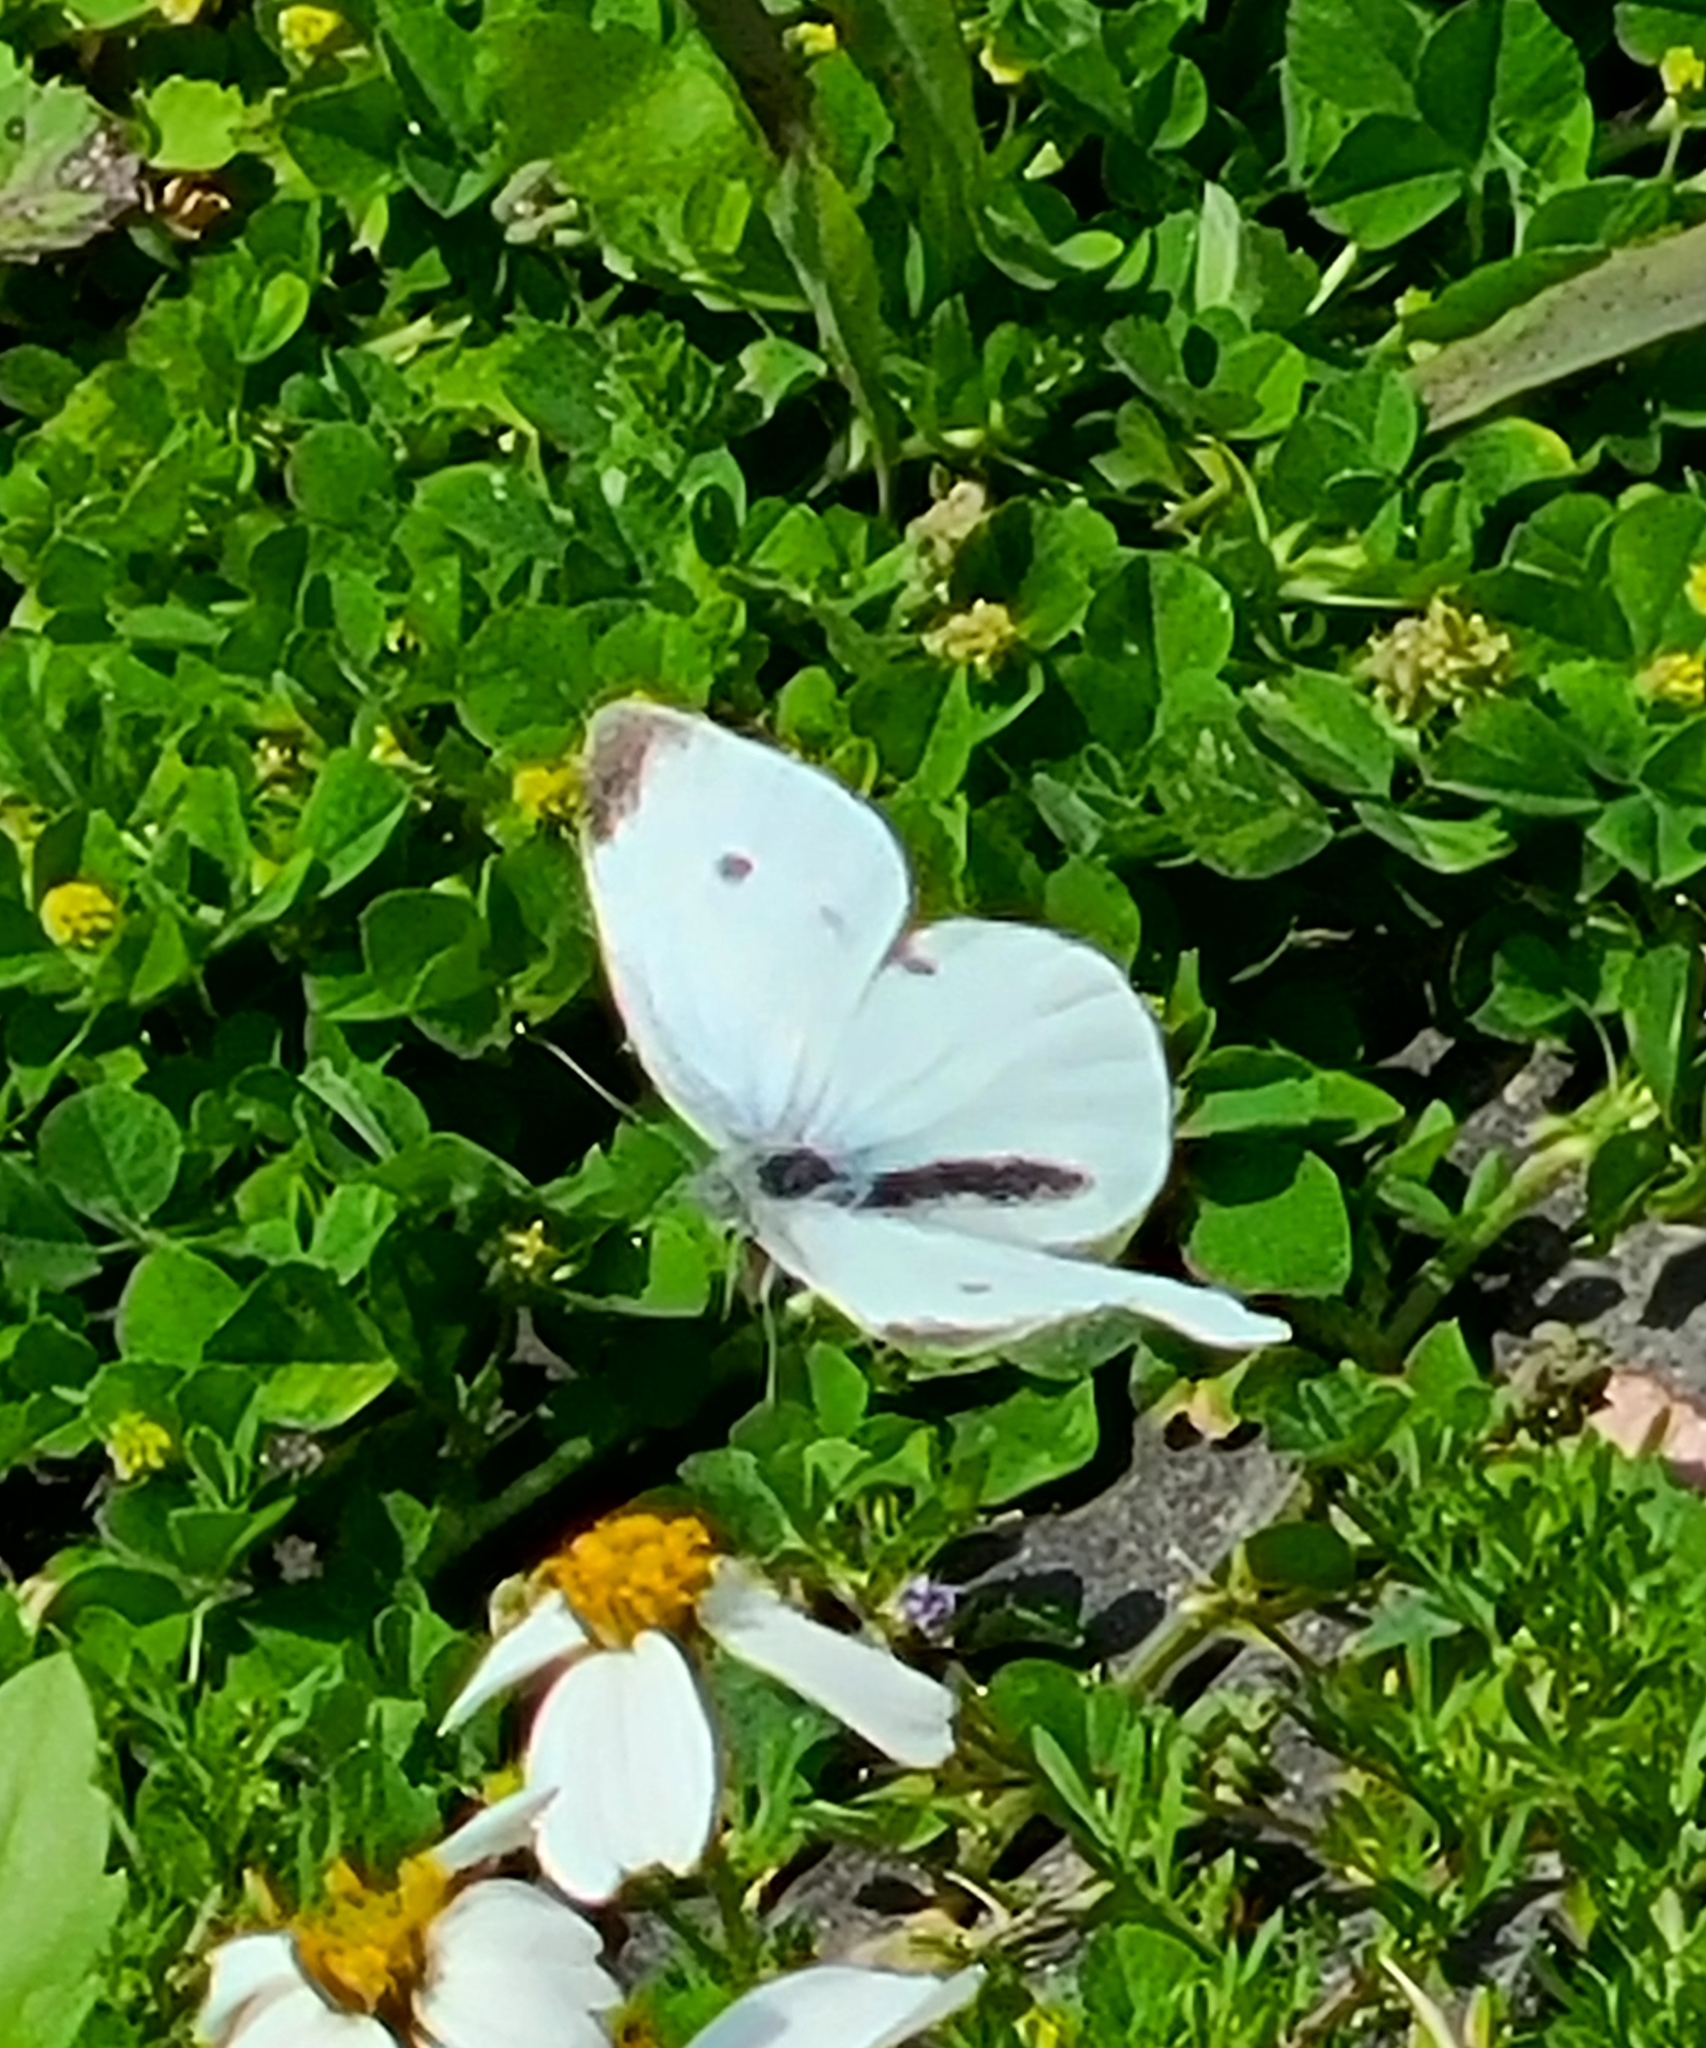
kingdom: Animalia
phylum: Arthropoda
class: Insecta
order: Lepidoptera
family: Pieridae
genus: Pieris
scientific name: Pieris rapae
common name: Small white
